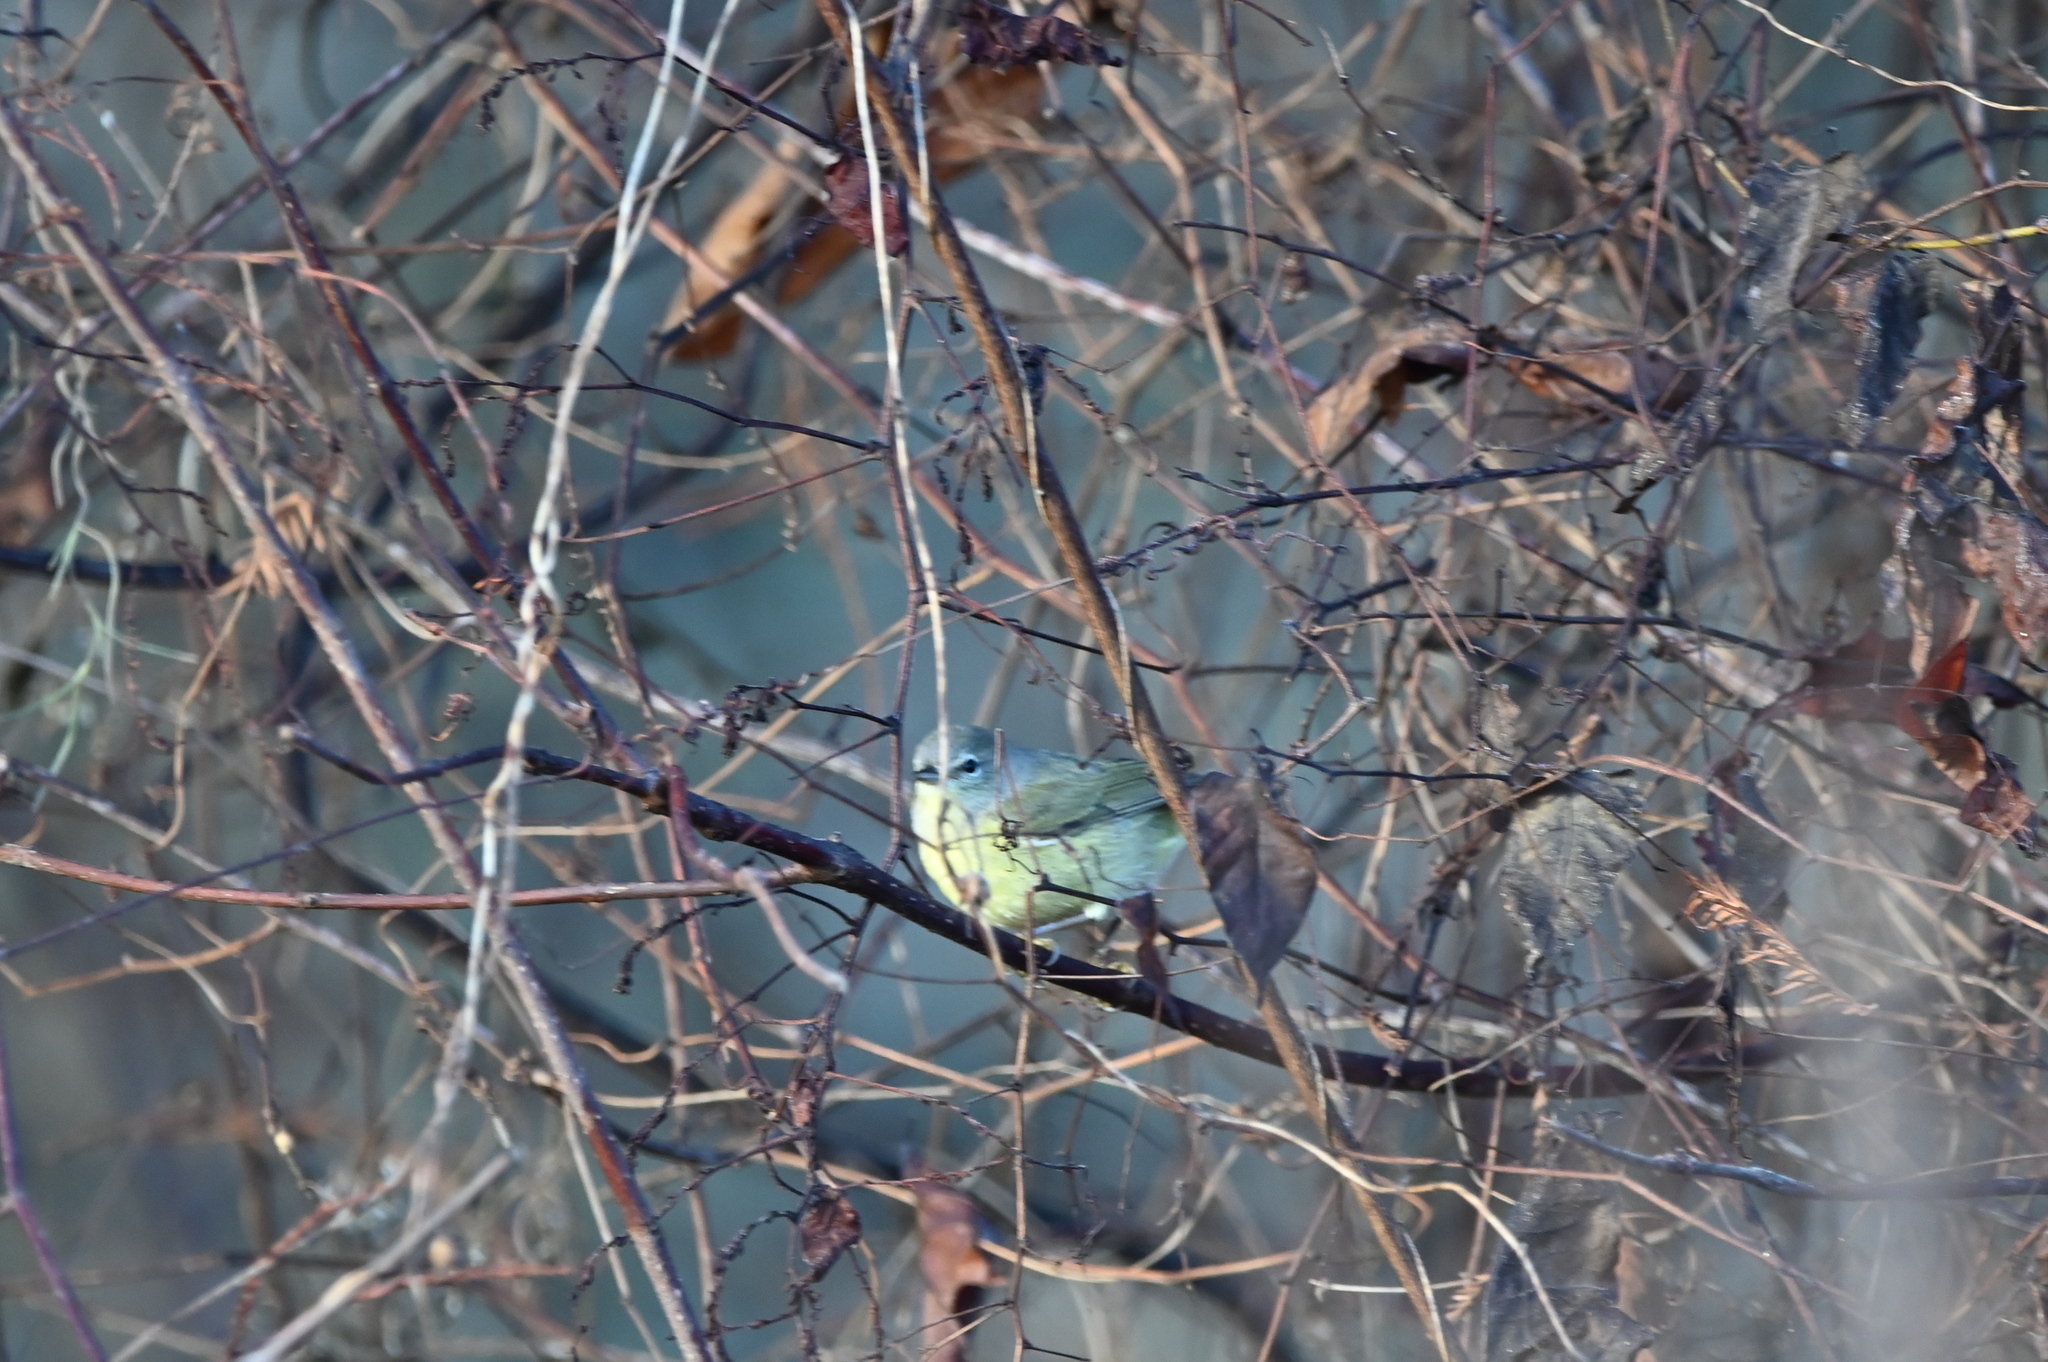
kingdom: Animalia
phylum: Chordata
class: Aves
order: Passeriformes
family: Parulidae
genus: Leiothlypis
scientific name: Leiothlypis celata
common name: Orange-crowned warbler
